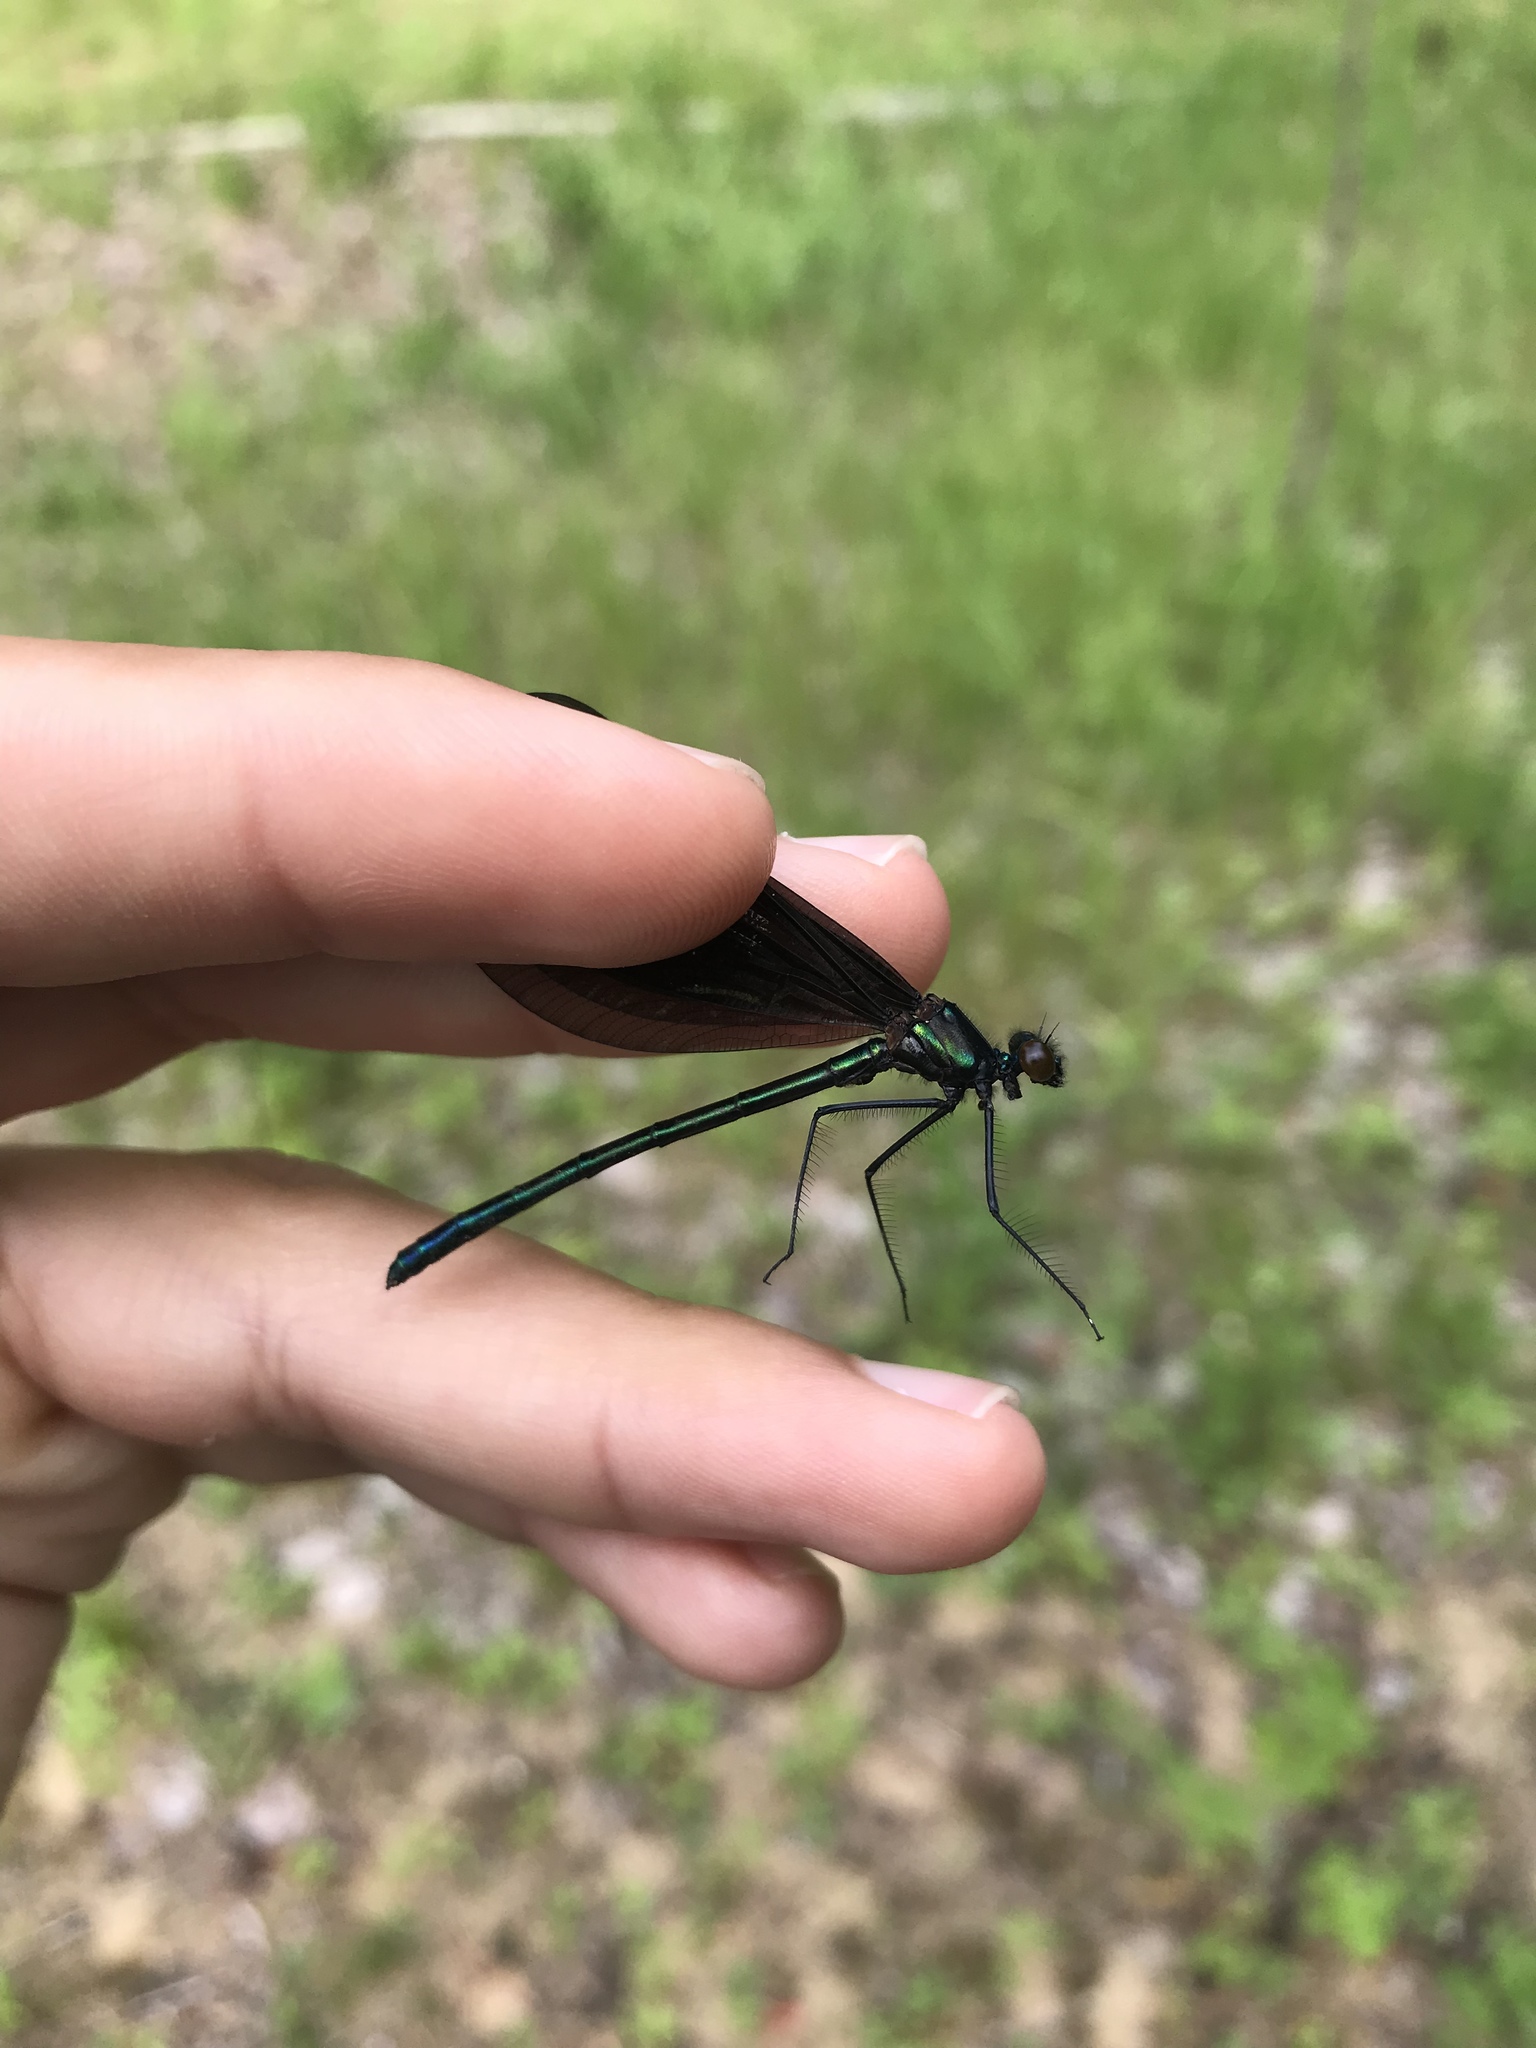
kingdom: Animalia
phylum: Arthropoda
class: Insecta
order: Odonata
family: Calopterygidae
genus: Calopteryx
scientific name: Calopteryx maculata
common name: Ebony jewelwing
